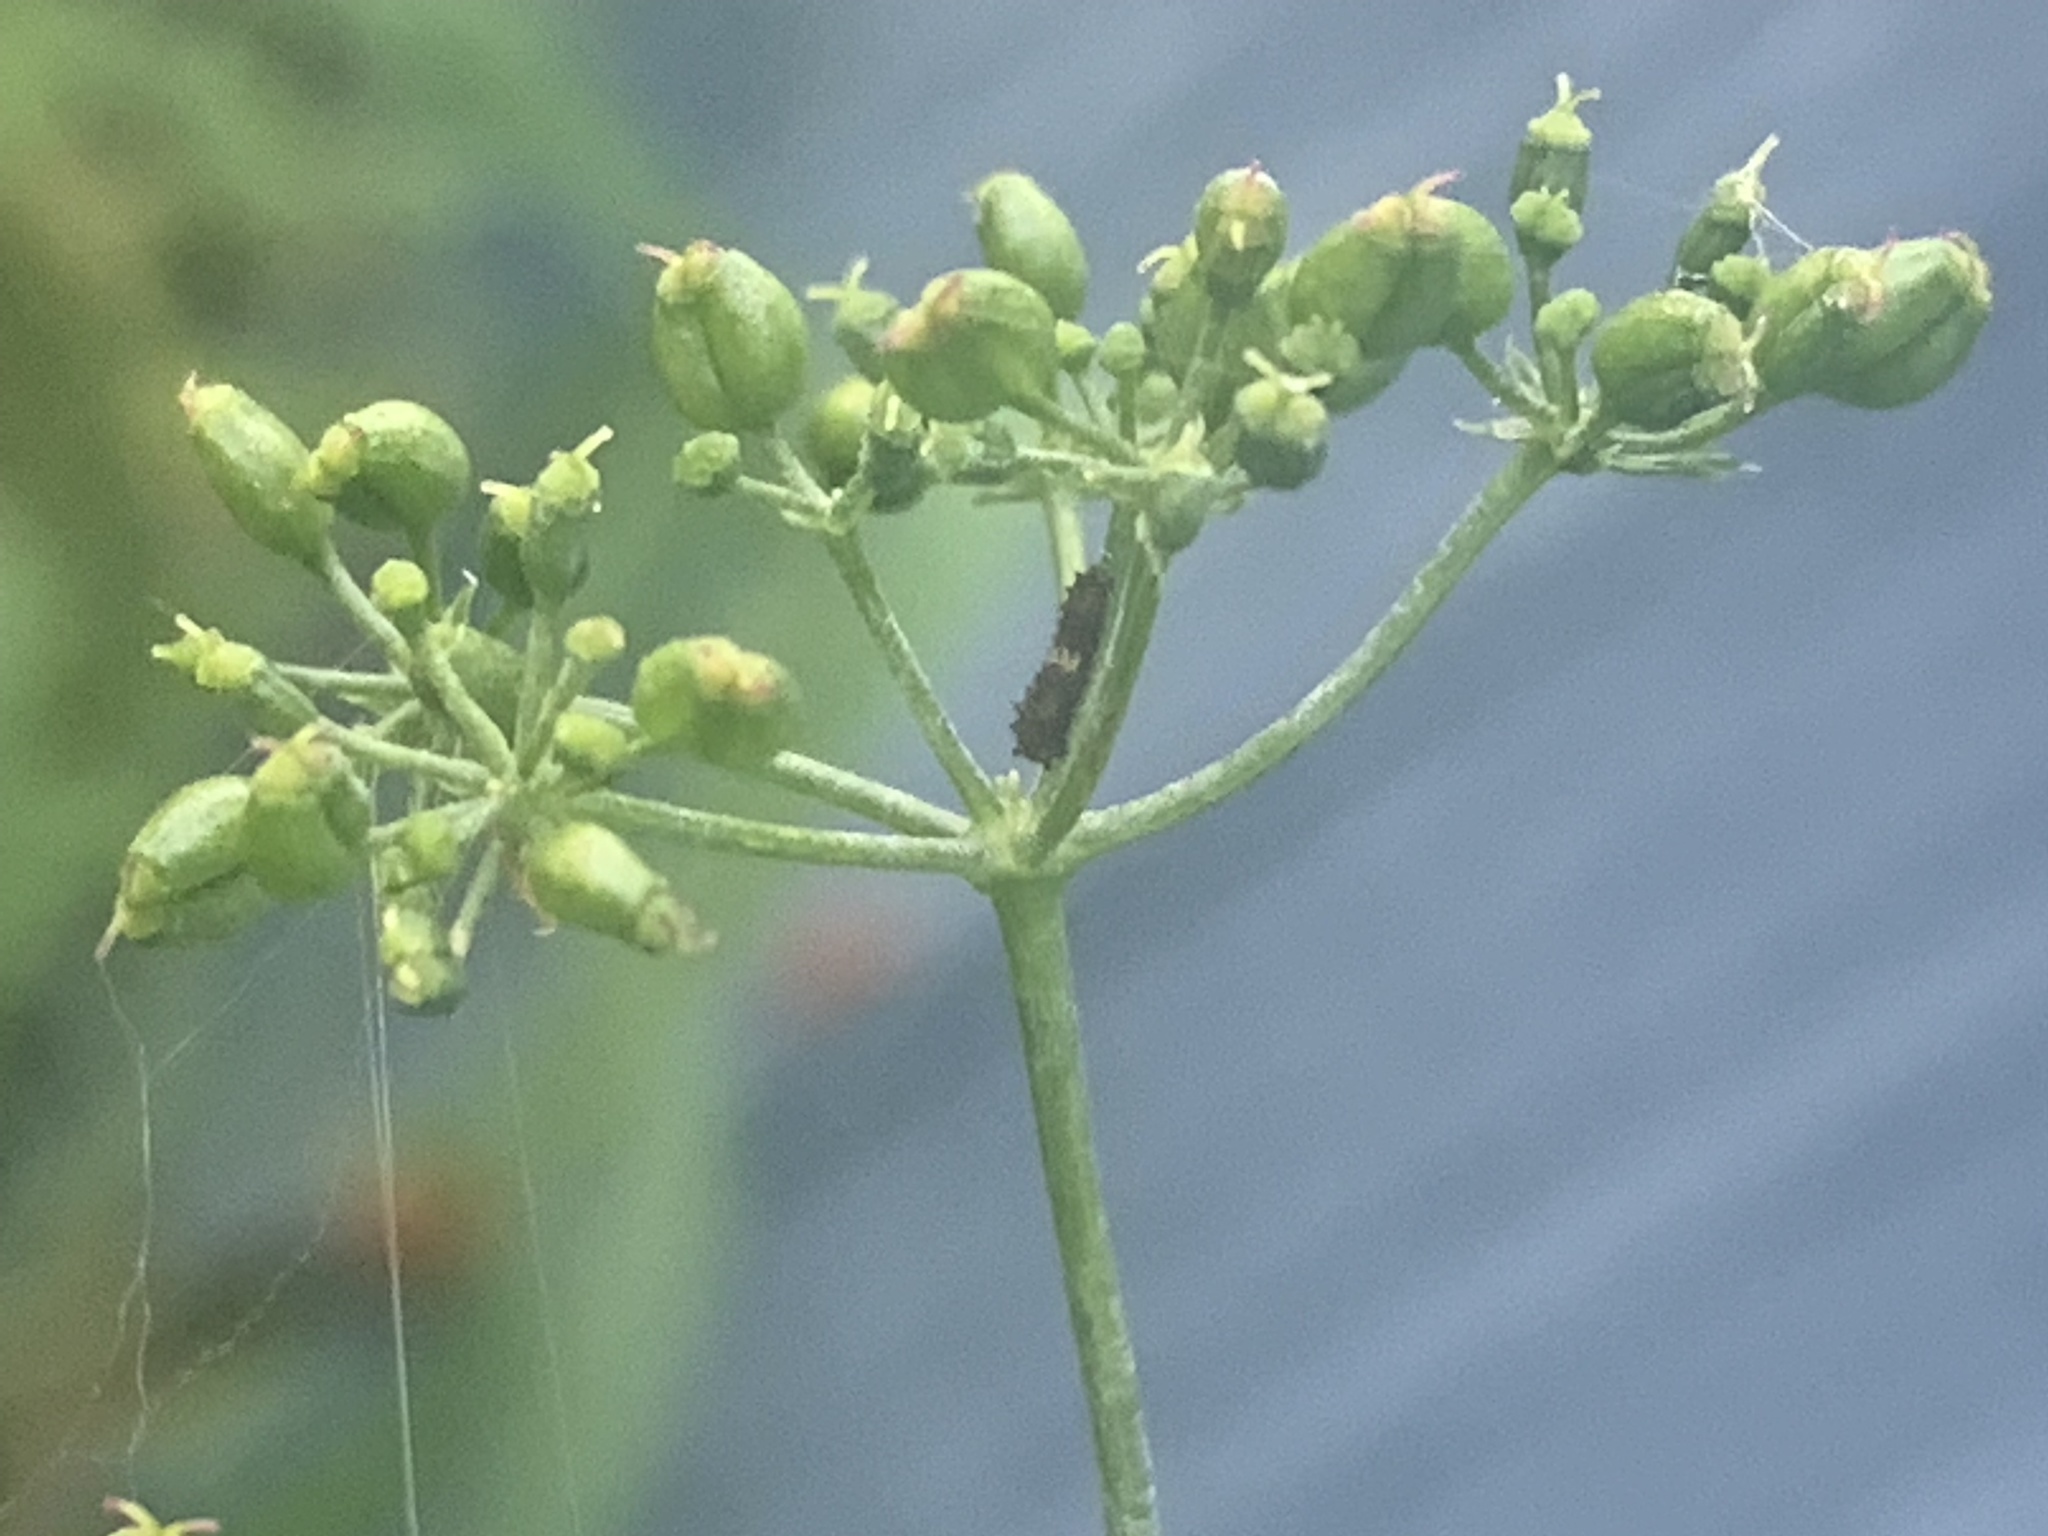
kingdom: Animalia
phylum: Arthropoda
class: Insecta
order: Lepidoptera
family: Papilionidae
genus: Papilio
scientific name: Papilio polyxenes
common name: Black swallowtail
